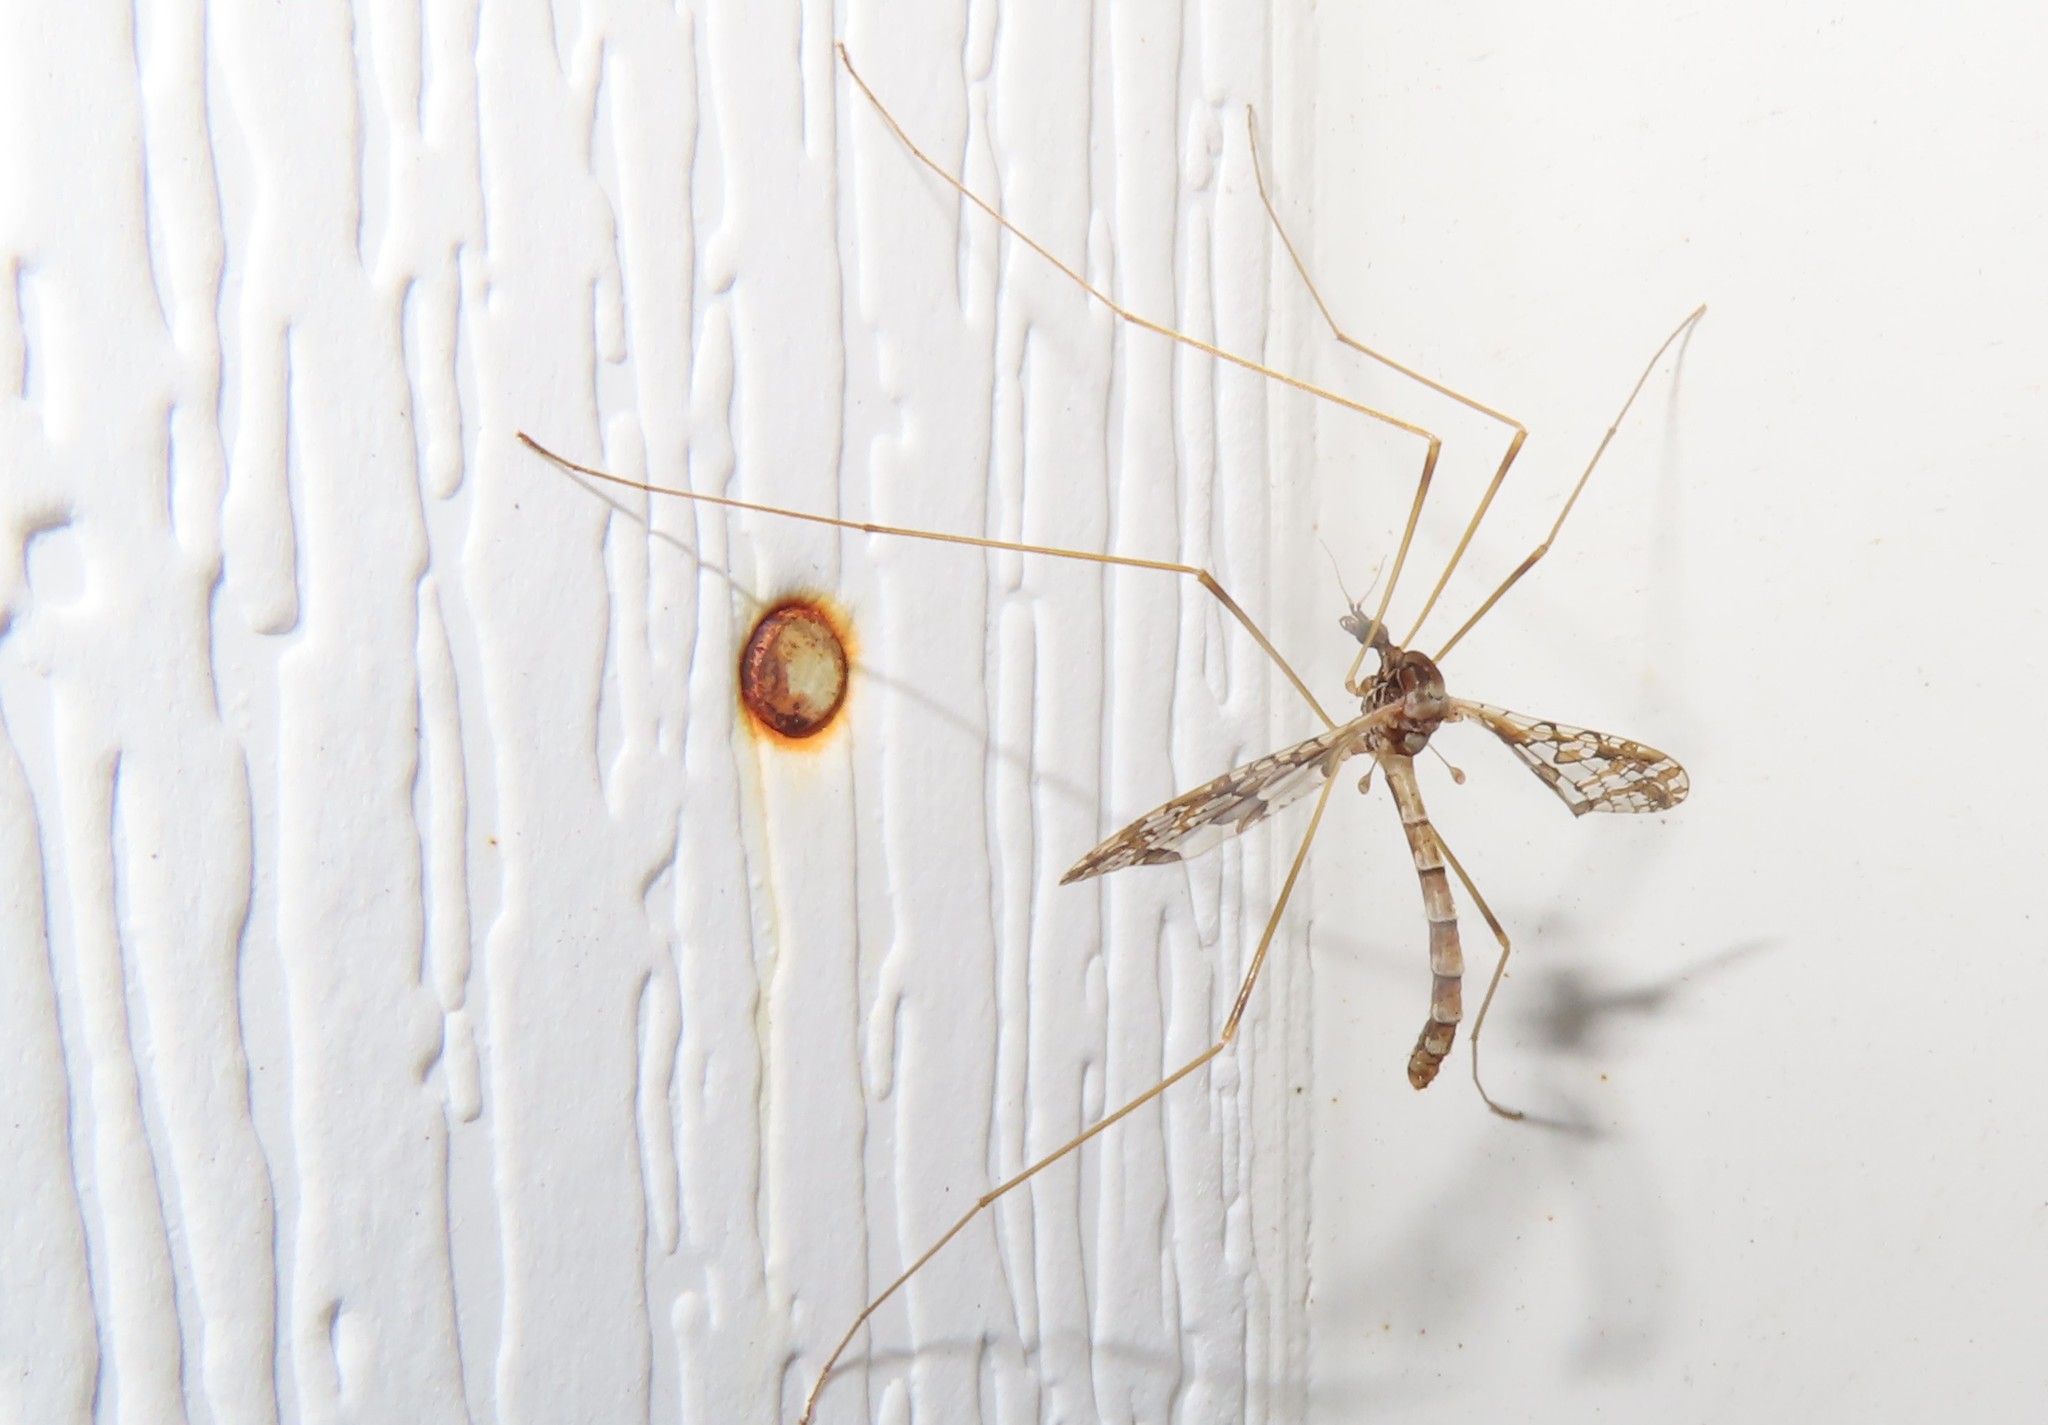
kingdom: Animalia
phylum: Arthropoda
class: Insecta
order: Diptera
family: Limoniidae
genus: Epiphragma
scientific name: Epiphragma solatrix
